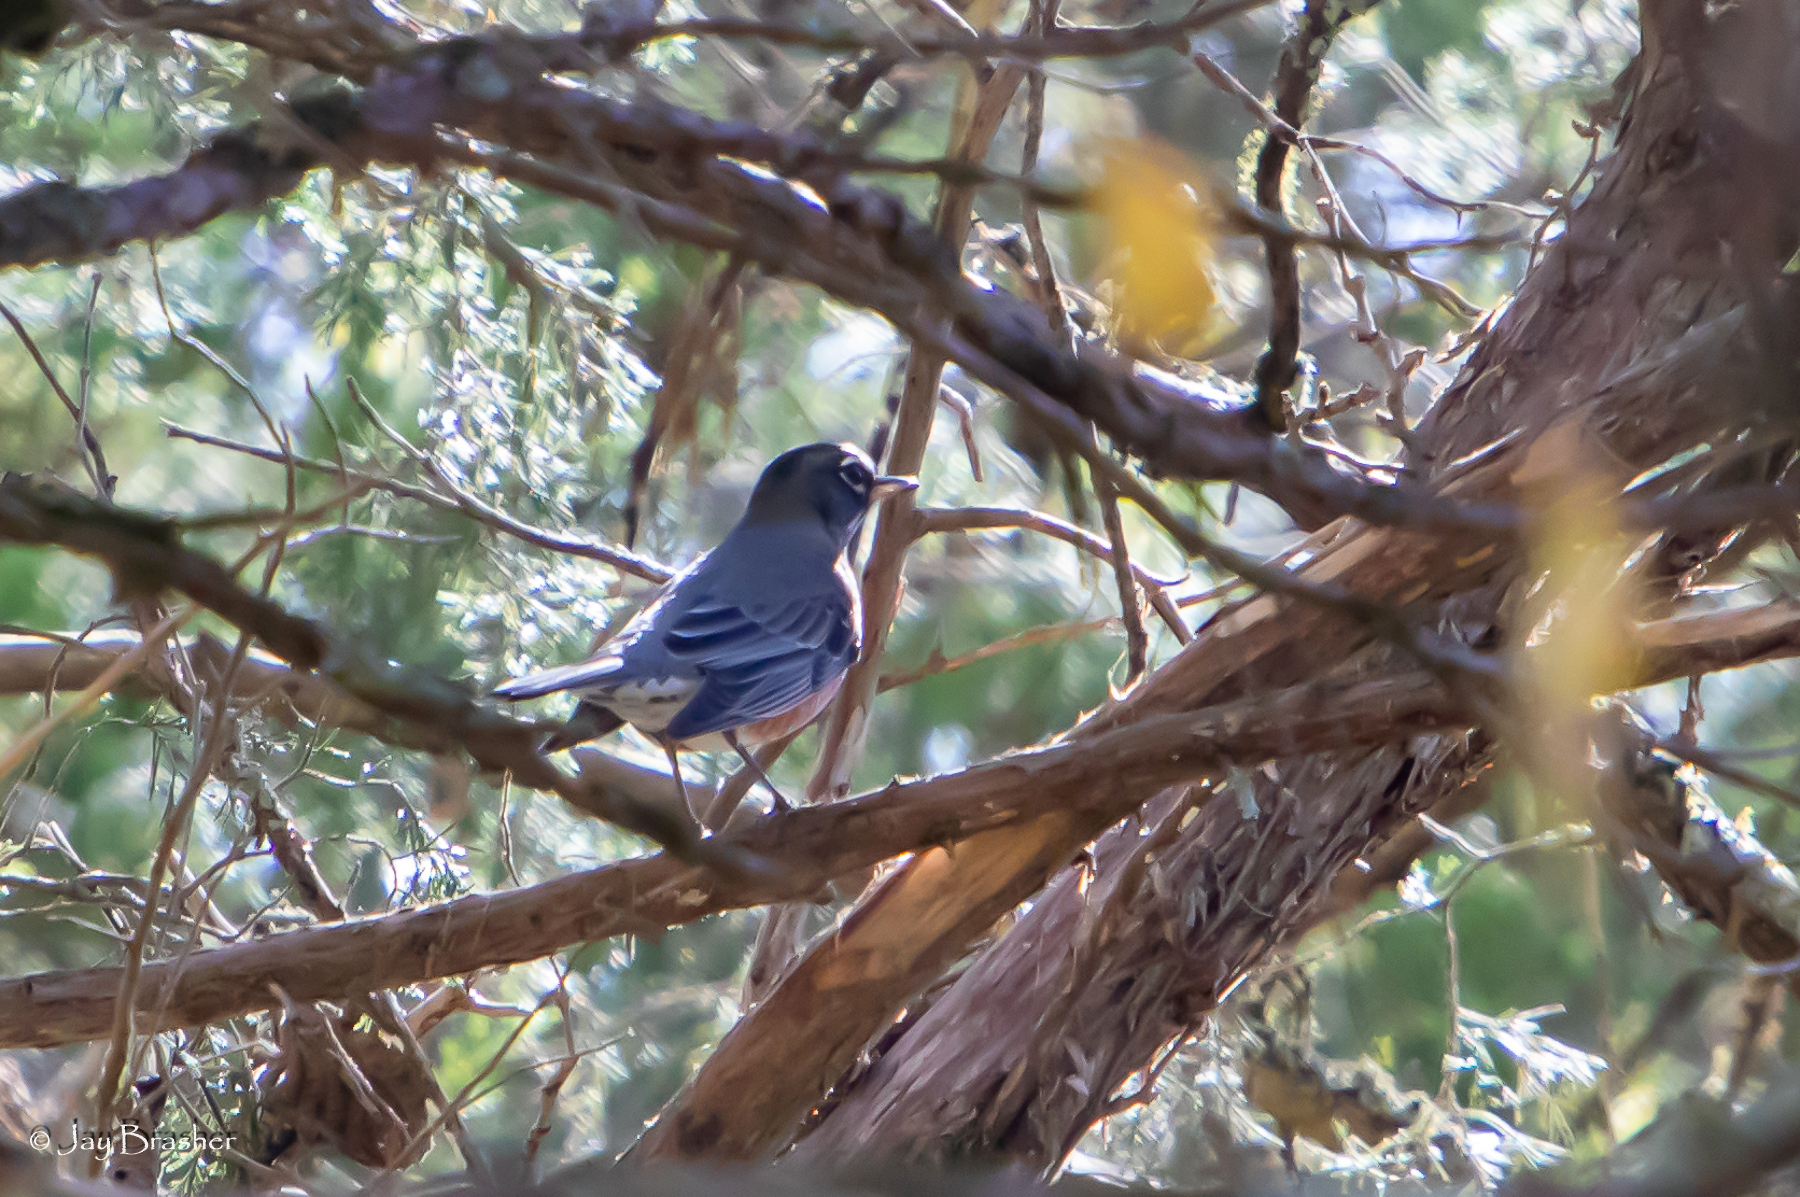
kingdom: Animalia
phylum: Chordata
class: Aves
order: Passeriformes
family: Turdidae
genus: Turdus
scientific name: Turdus migratorius
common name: American robin
